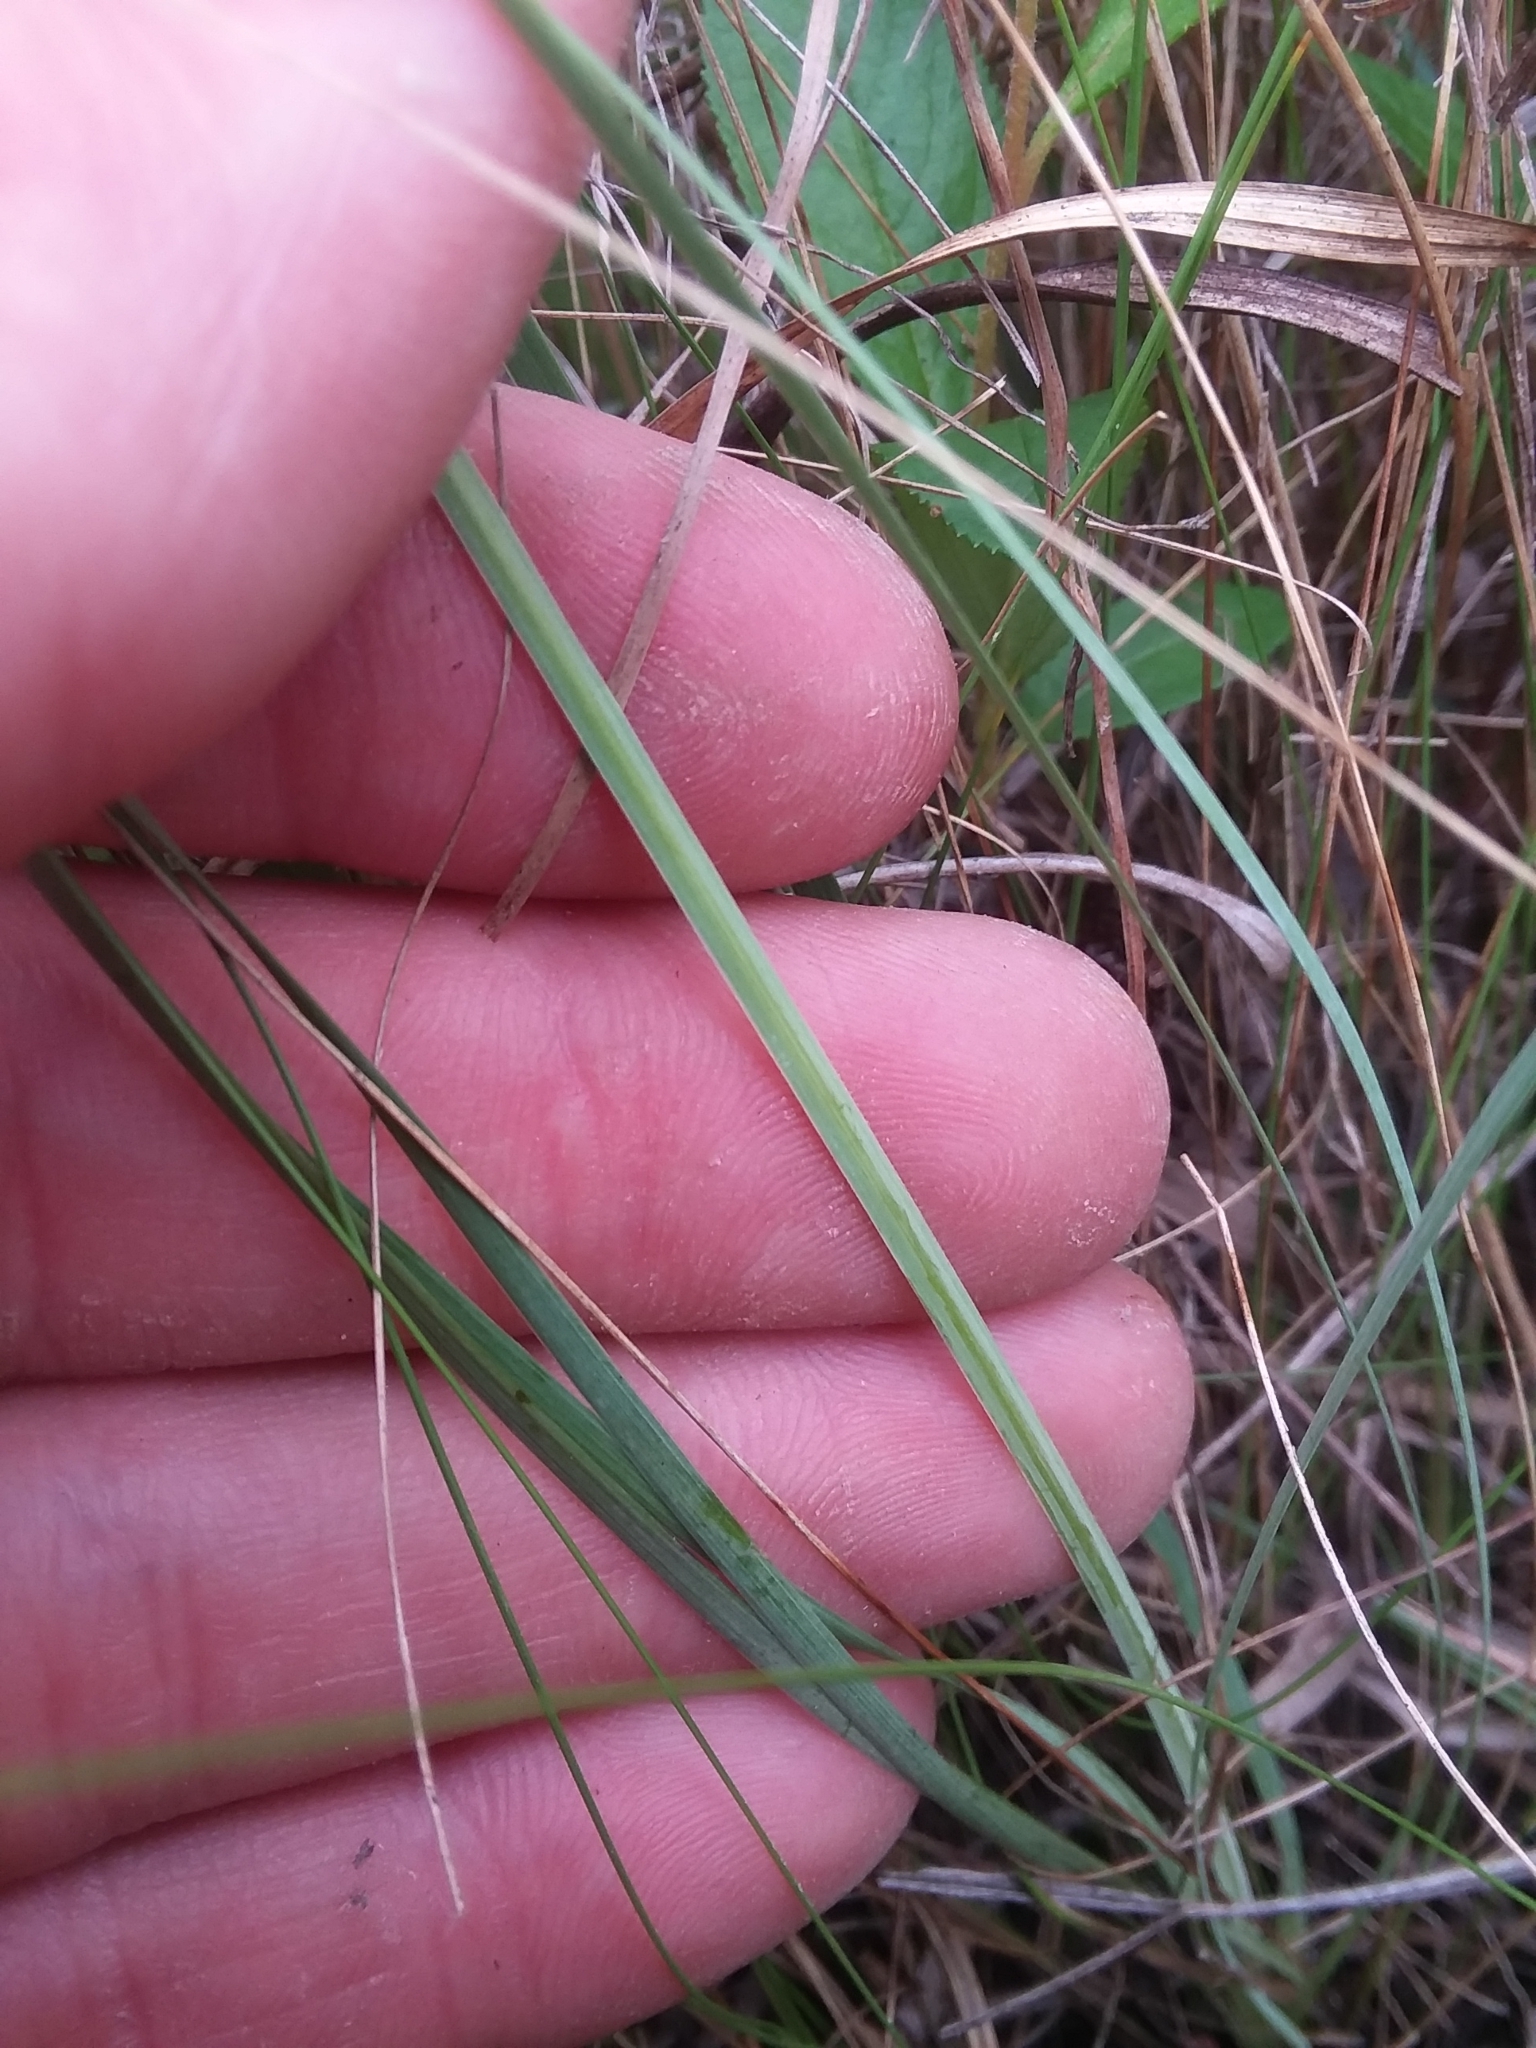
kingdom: Plantae
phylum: Tracheophyta
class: Liliopsida
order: Asparagales
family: Iridaceae
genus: Sisyrinchium
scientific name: Sisyrinchium nashii
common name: Nash's blue-eyed-grass
